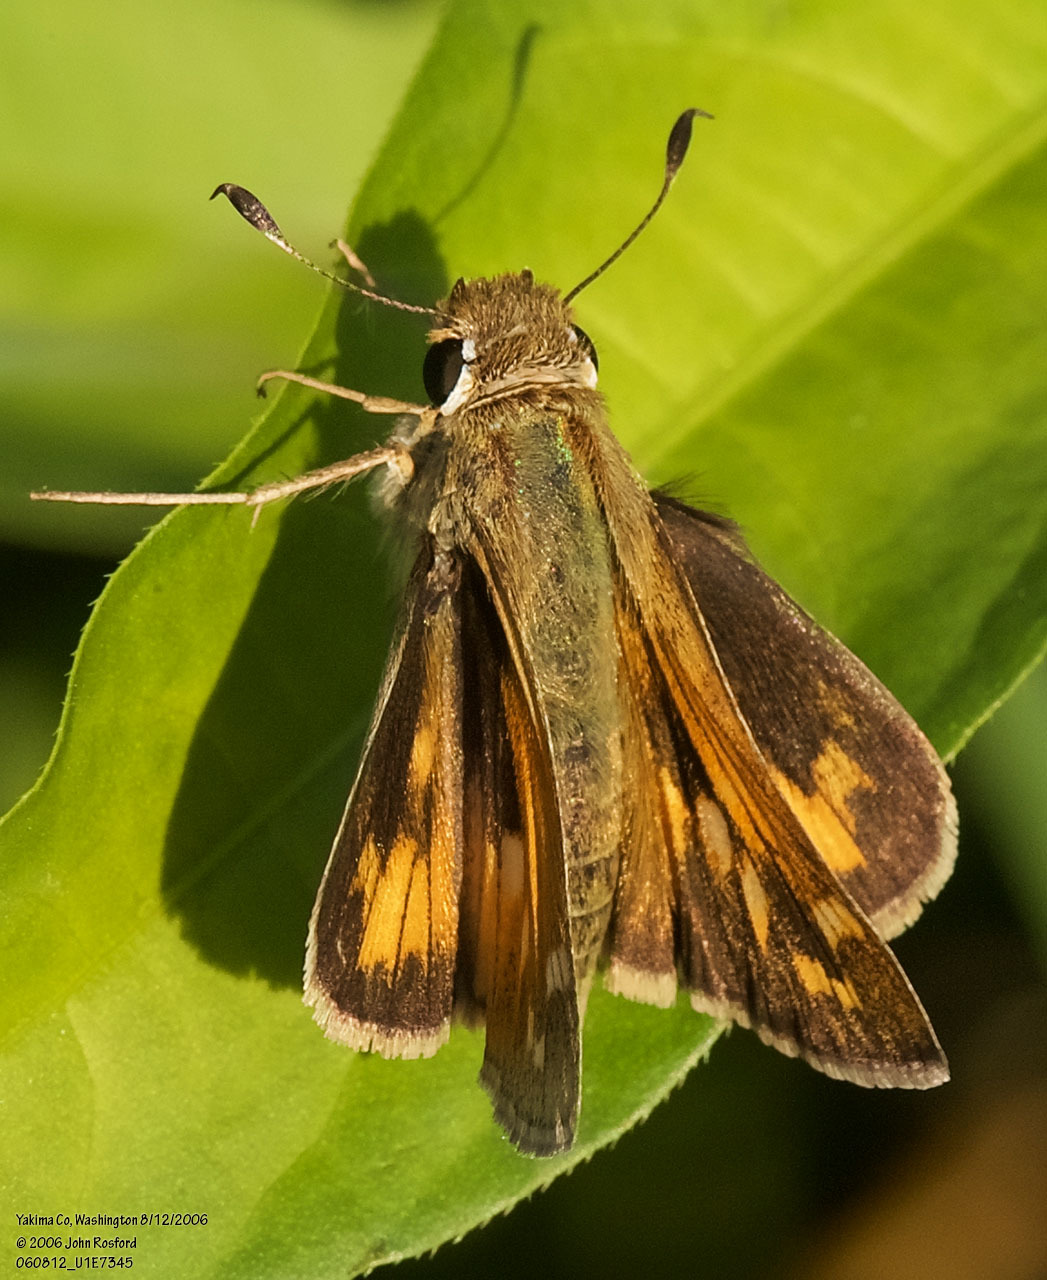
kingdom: Animalia
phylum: Arthropoda
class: Insecta
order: Lepidoptera
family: Hesperiidae
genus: Atalopedes
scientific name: Atalopedes campestris
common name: Sachem
